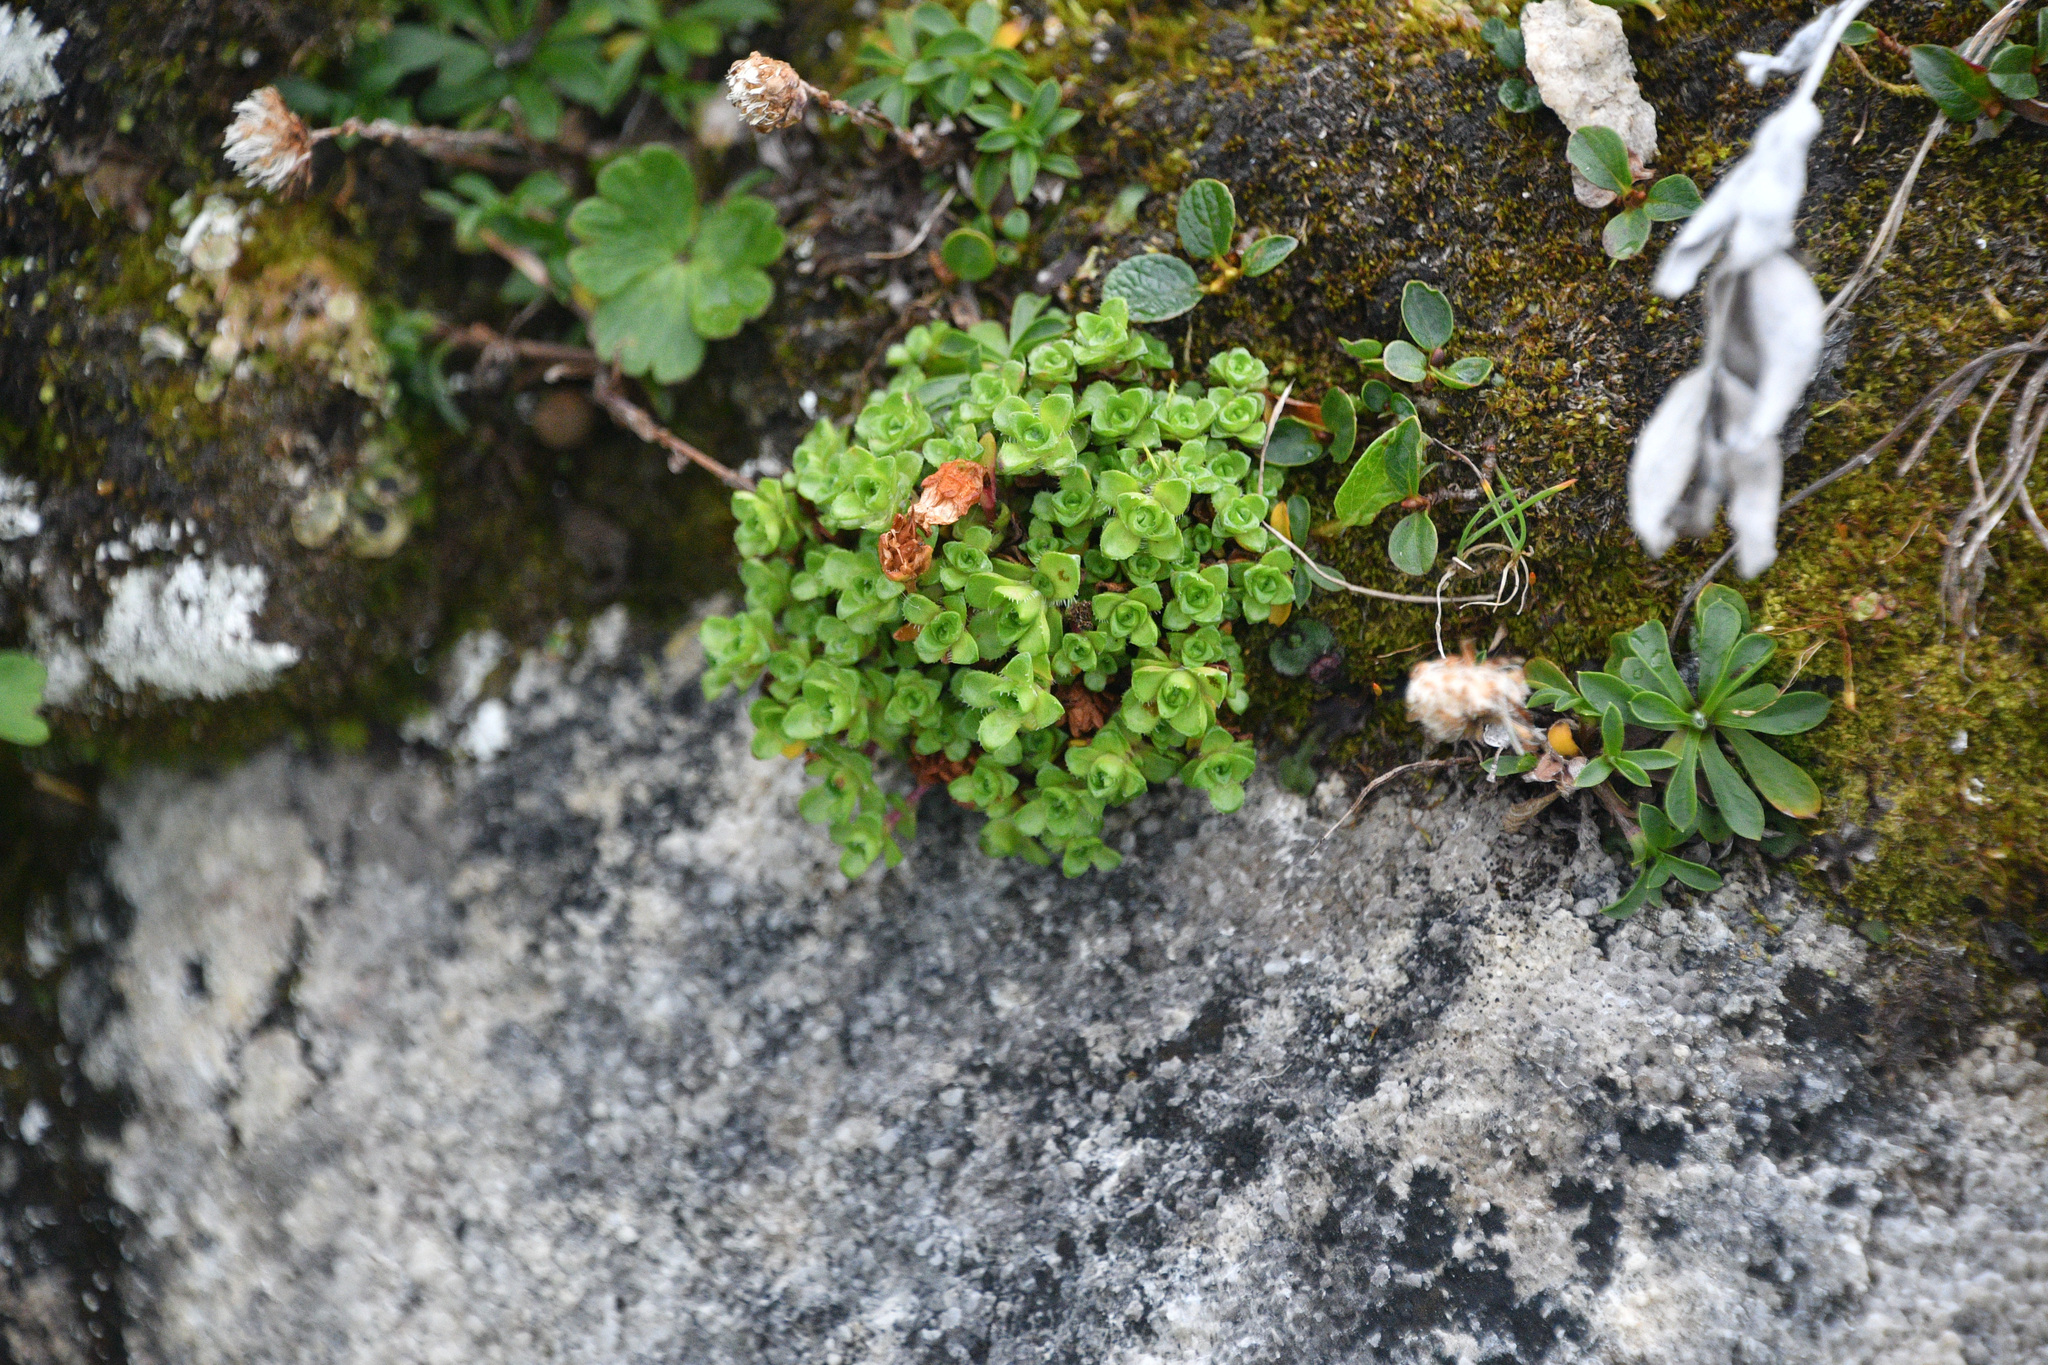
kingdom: Plantae
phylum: Tracheophyta
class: Magnoliopsida
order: Saxifragales
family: Saxifragaceae
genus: Saxifraga
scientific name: Saxifraga oppositifolia
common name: Purple saxifrage
